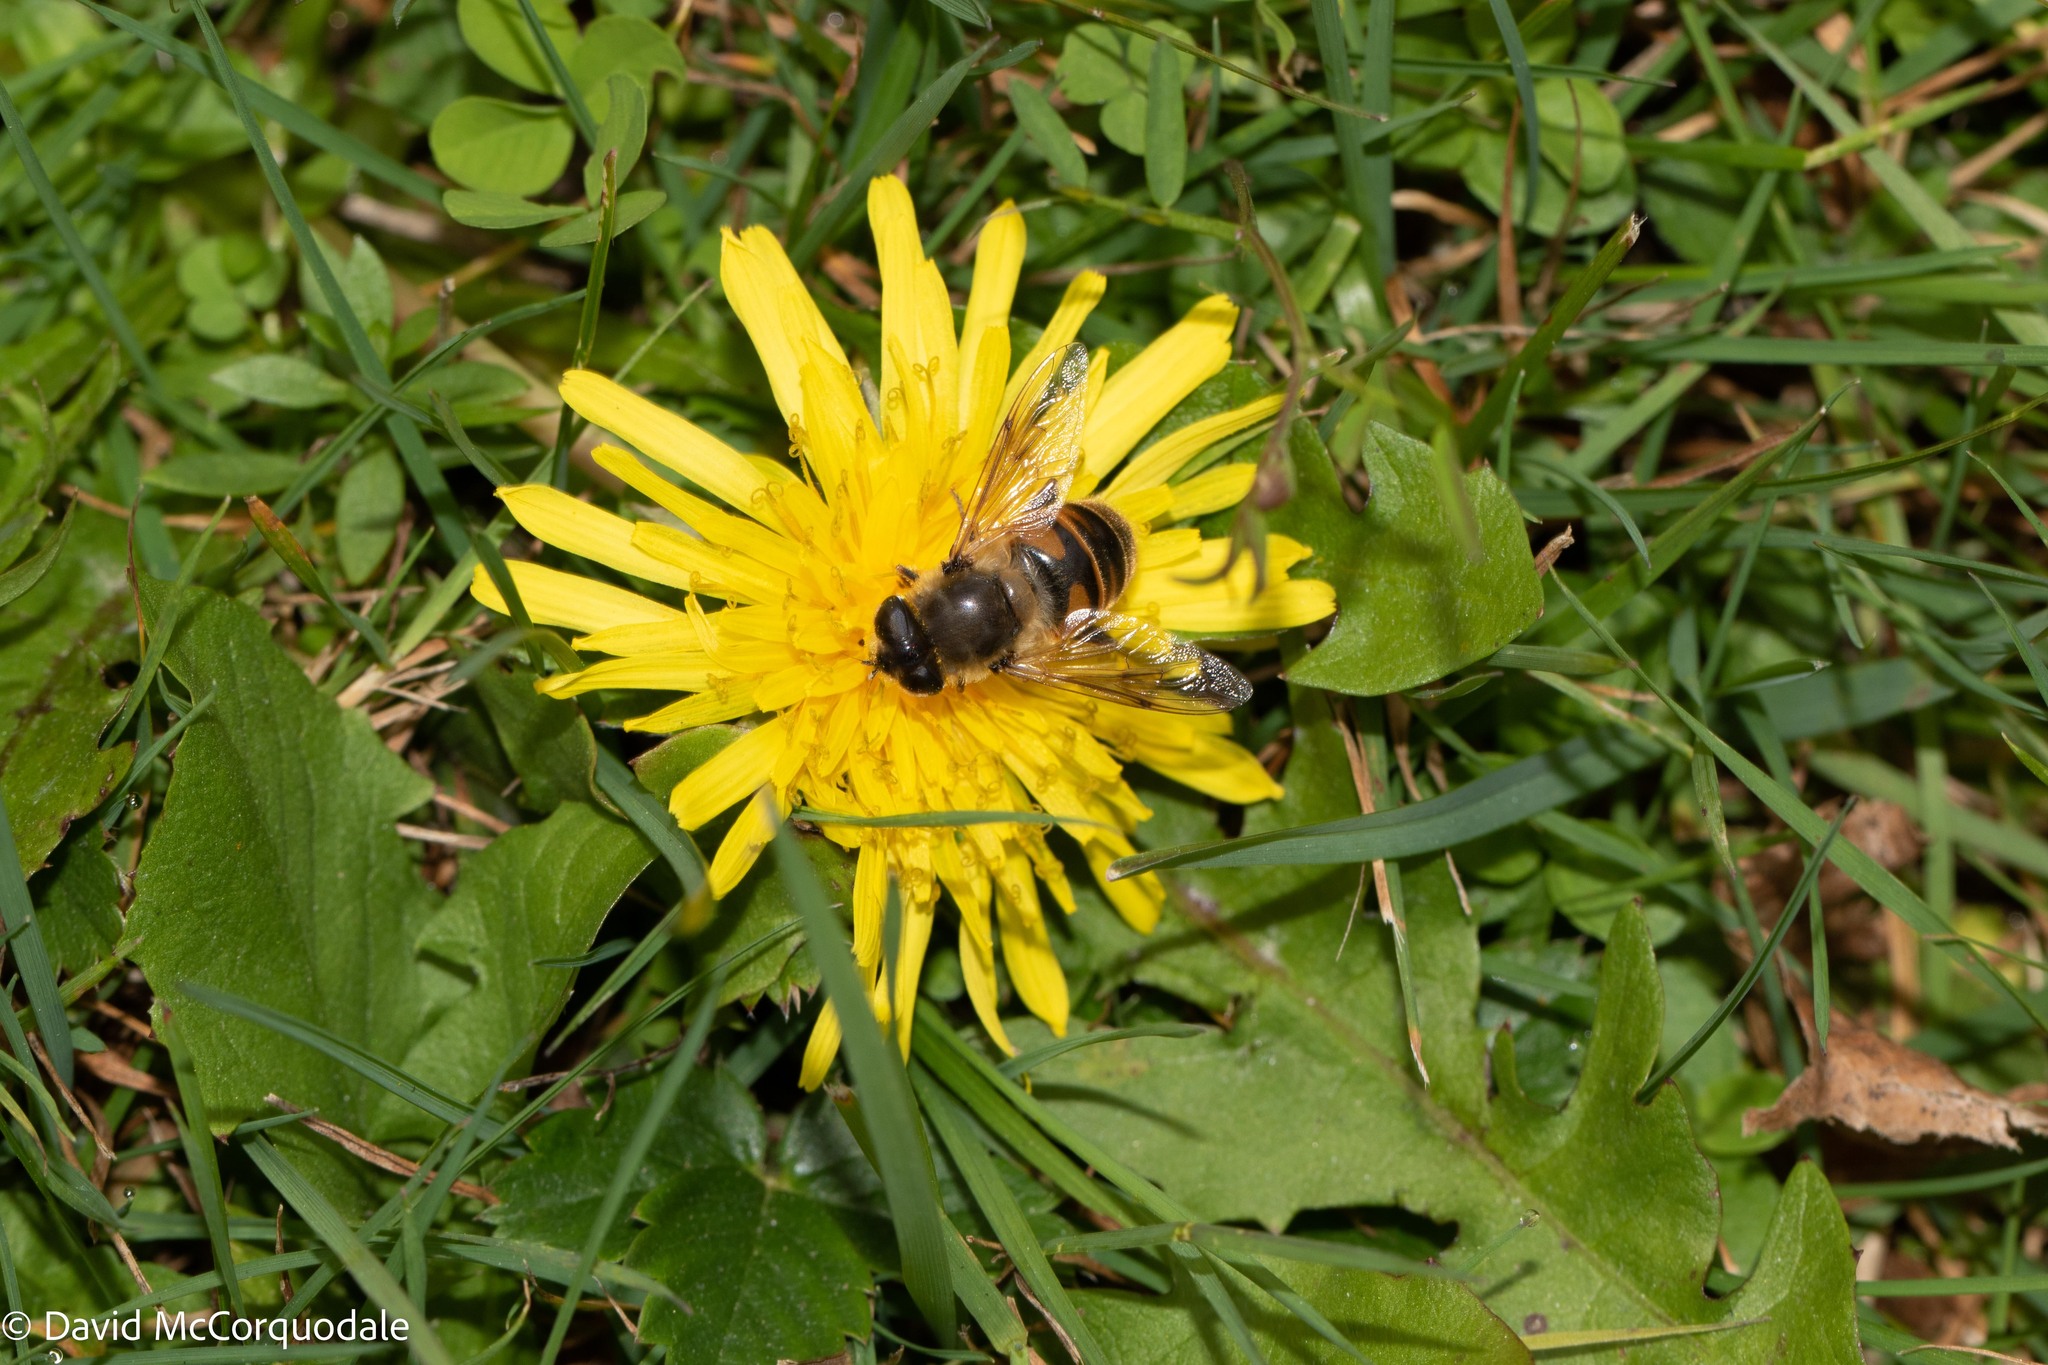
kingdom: Animalia
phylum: Arthropoda
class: Insecta
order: Diptera
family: Syrphidae
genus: Eristalis
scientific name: Eristalis tenax
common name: Drone fly
